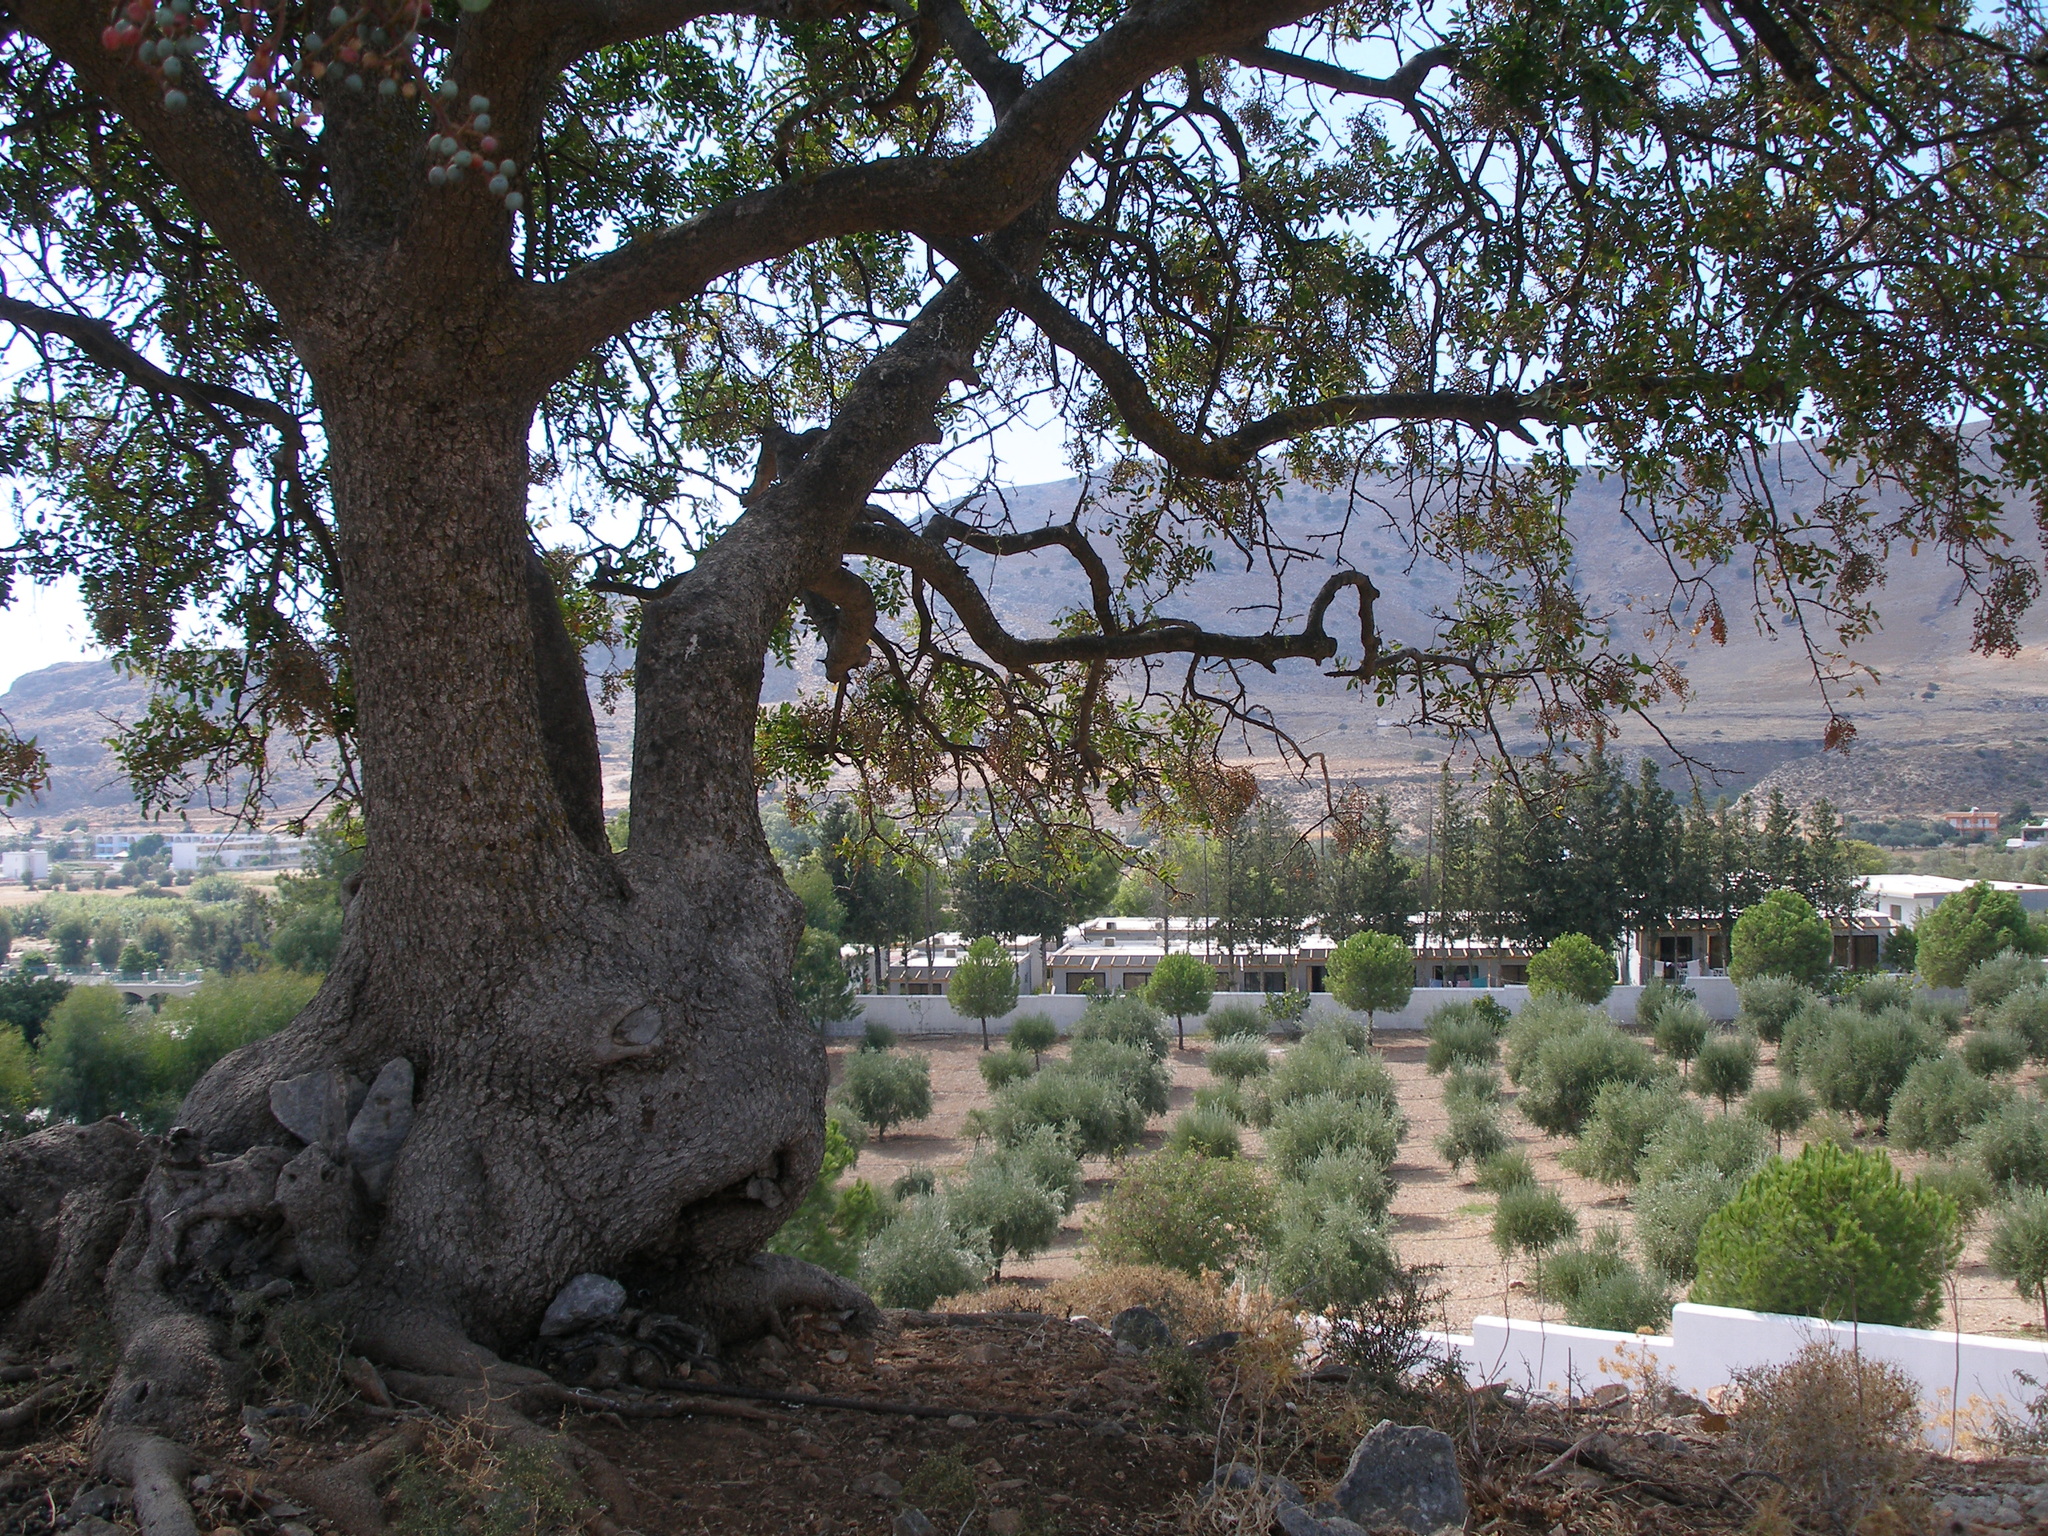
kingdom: Plantae
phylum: Tracheophyta
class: Magnoliopsida
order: Sapindales
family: Anacardiaceae
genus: Pistacia
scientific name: Pistacia atlantica
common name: Mt. atlas mastic tree
